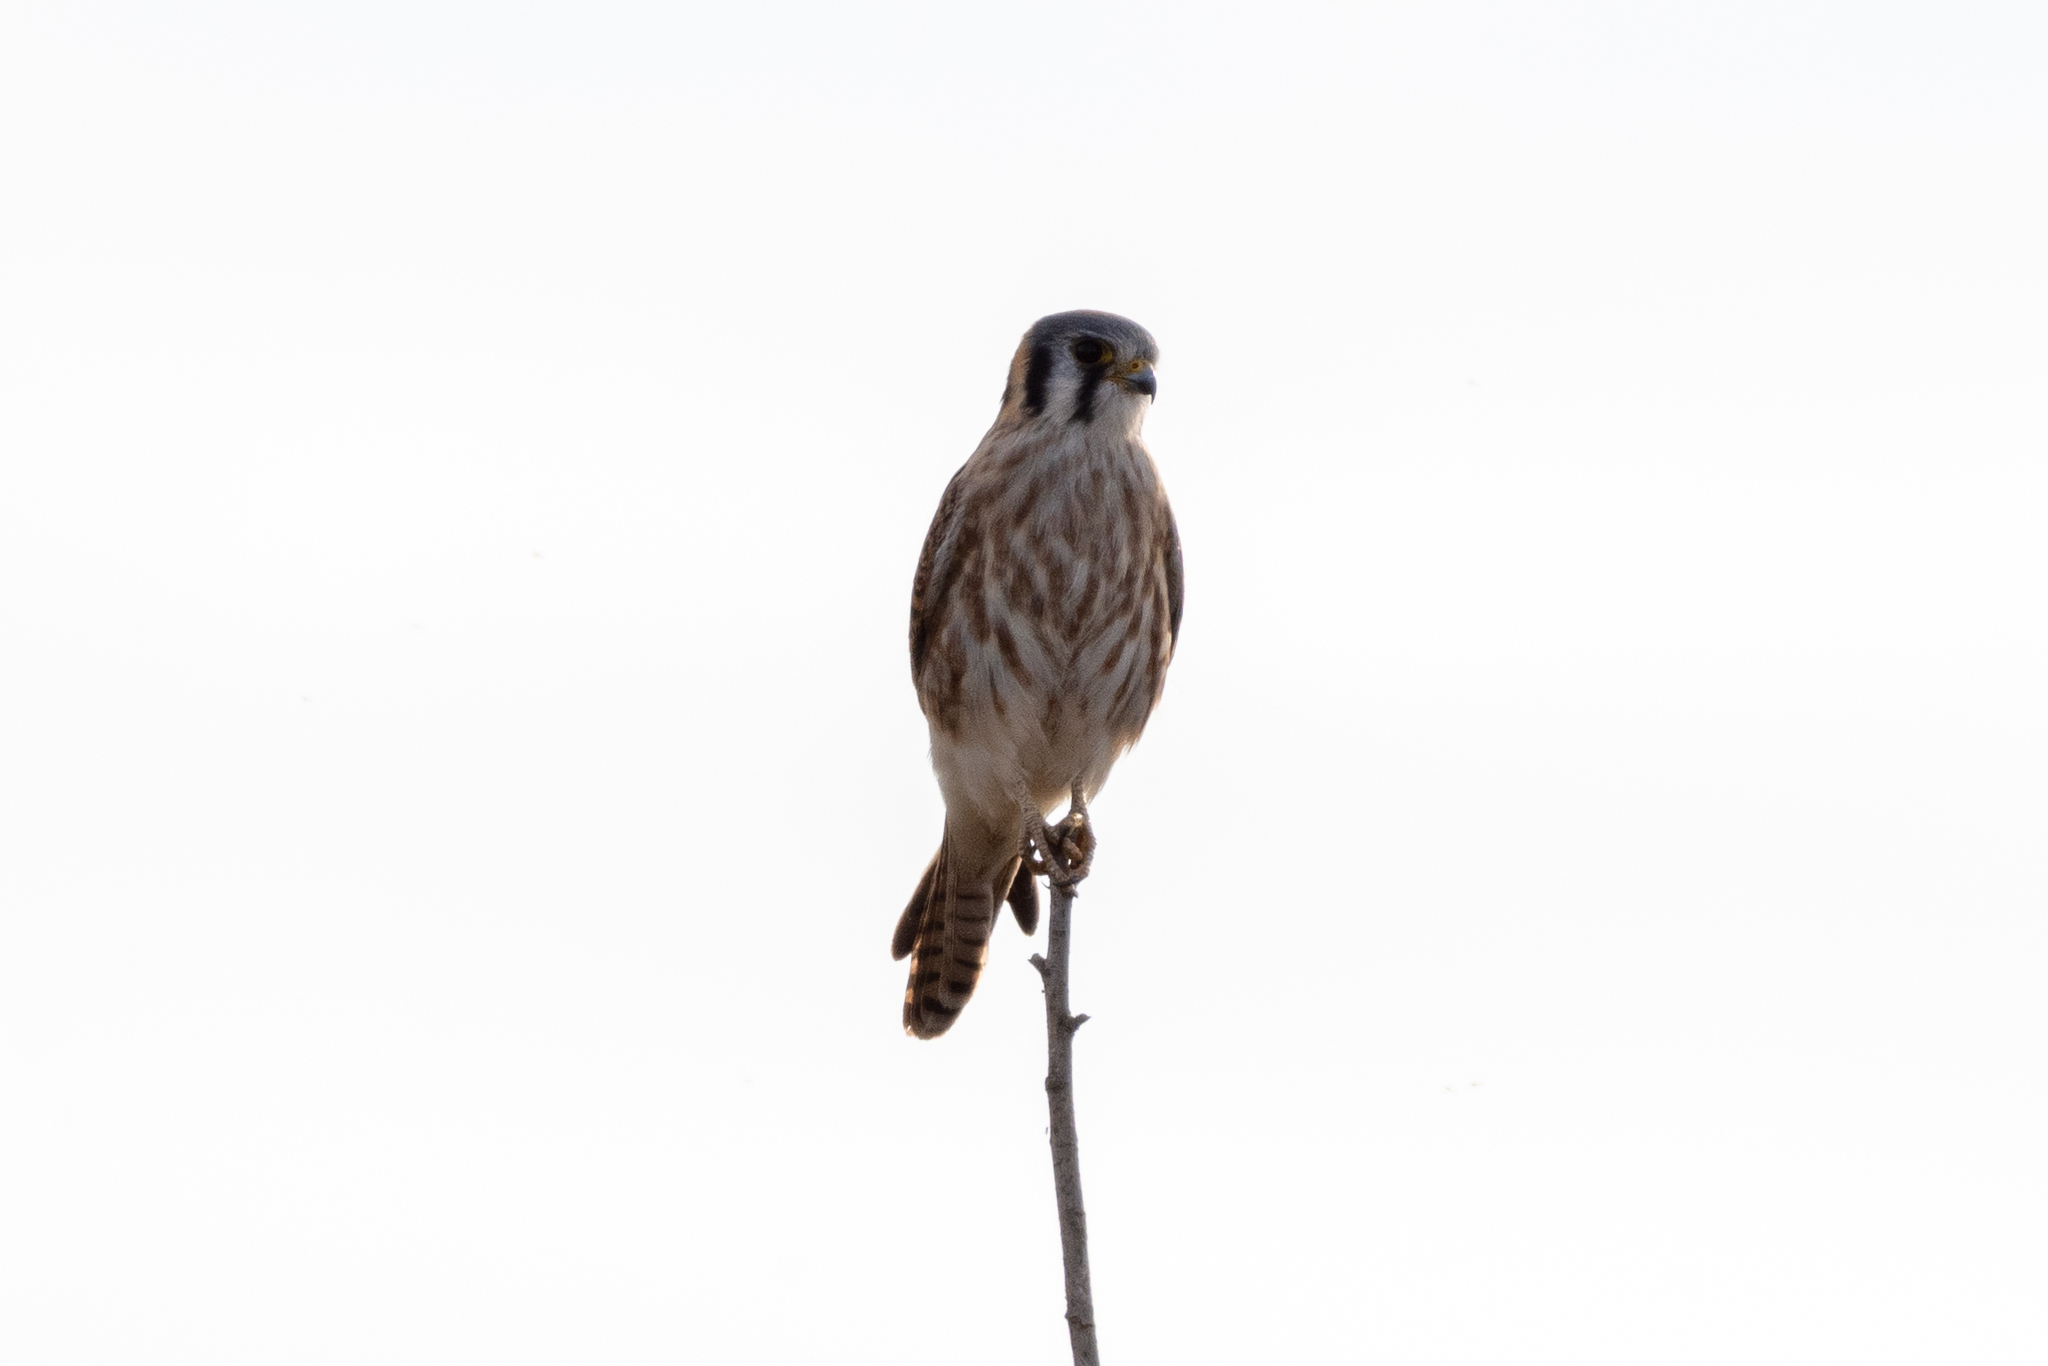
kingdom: Animalia
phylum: Chordata
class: Aves
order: Falconiformes
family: Falconidae
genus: Falco
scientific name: Falco sparverius
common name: American kestrel
